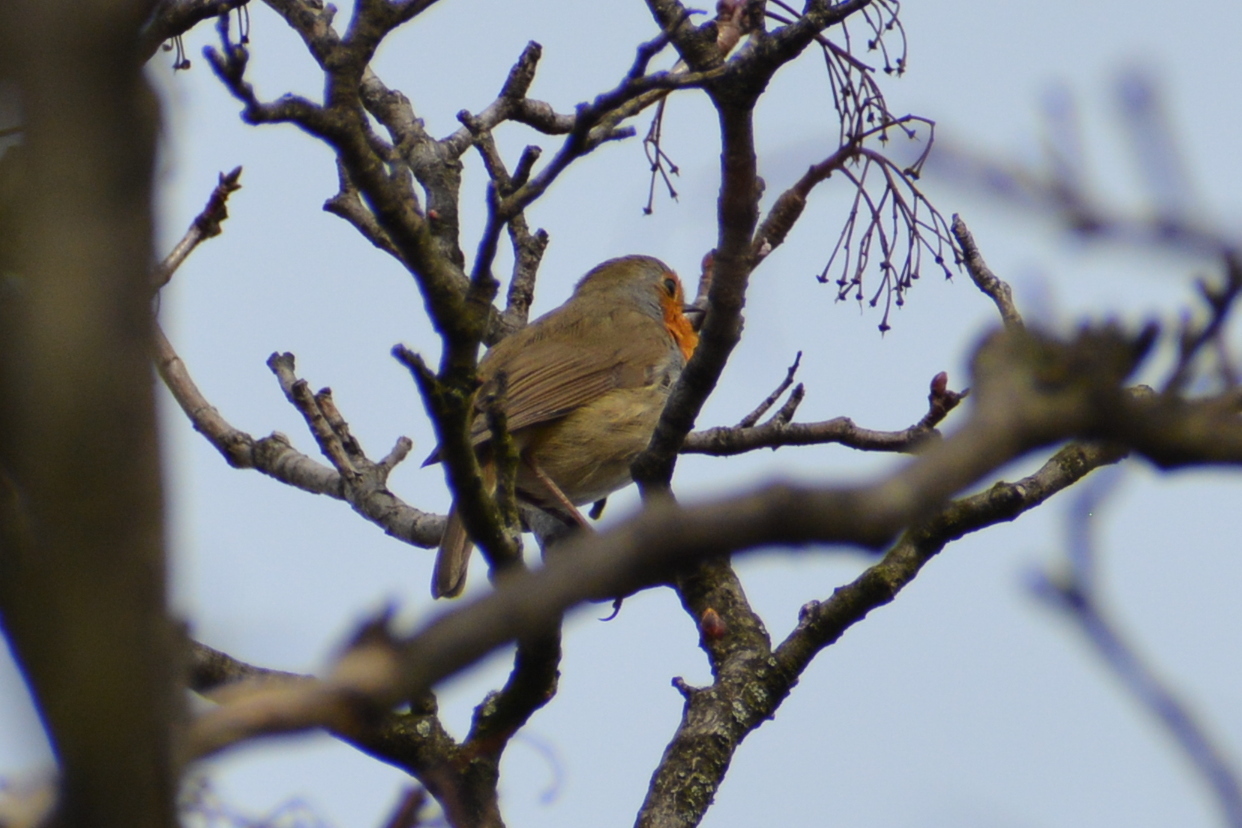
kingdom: Animalia
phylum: Chordata
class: Aves
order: Passeriformes
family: Muscicapidae
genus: Erithacus
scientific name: Erithacus rubecula
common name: European robin
